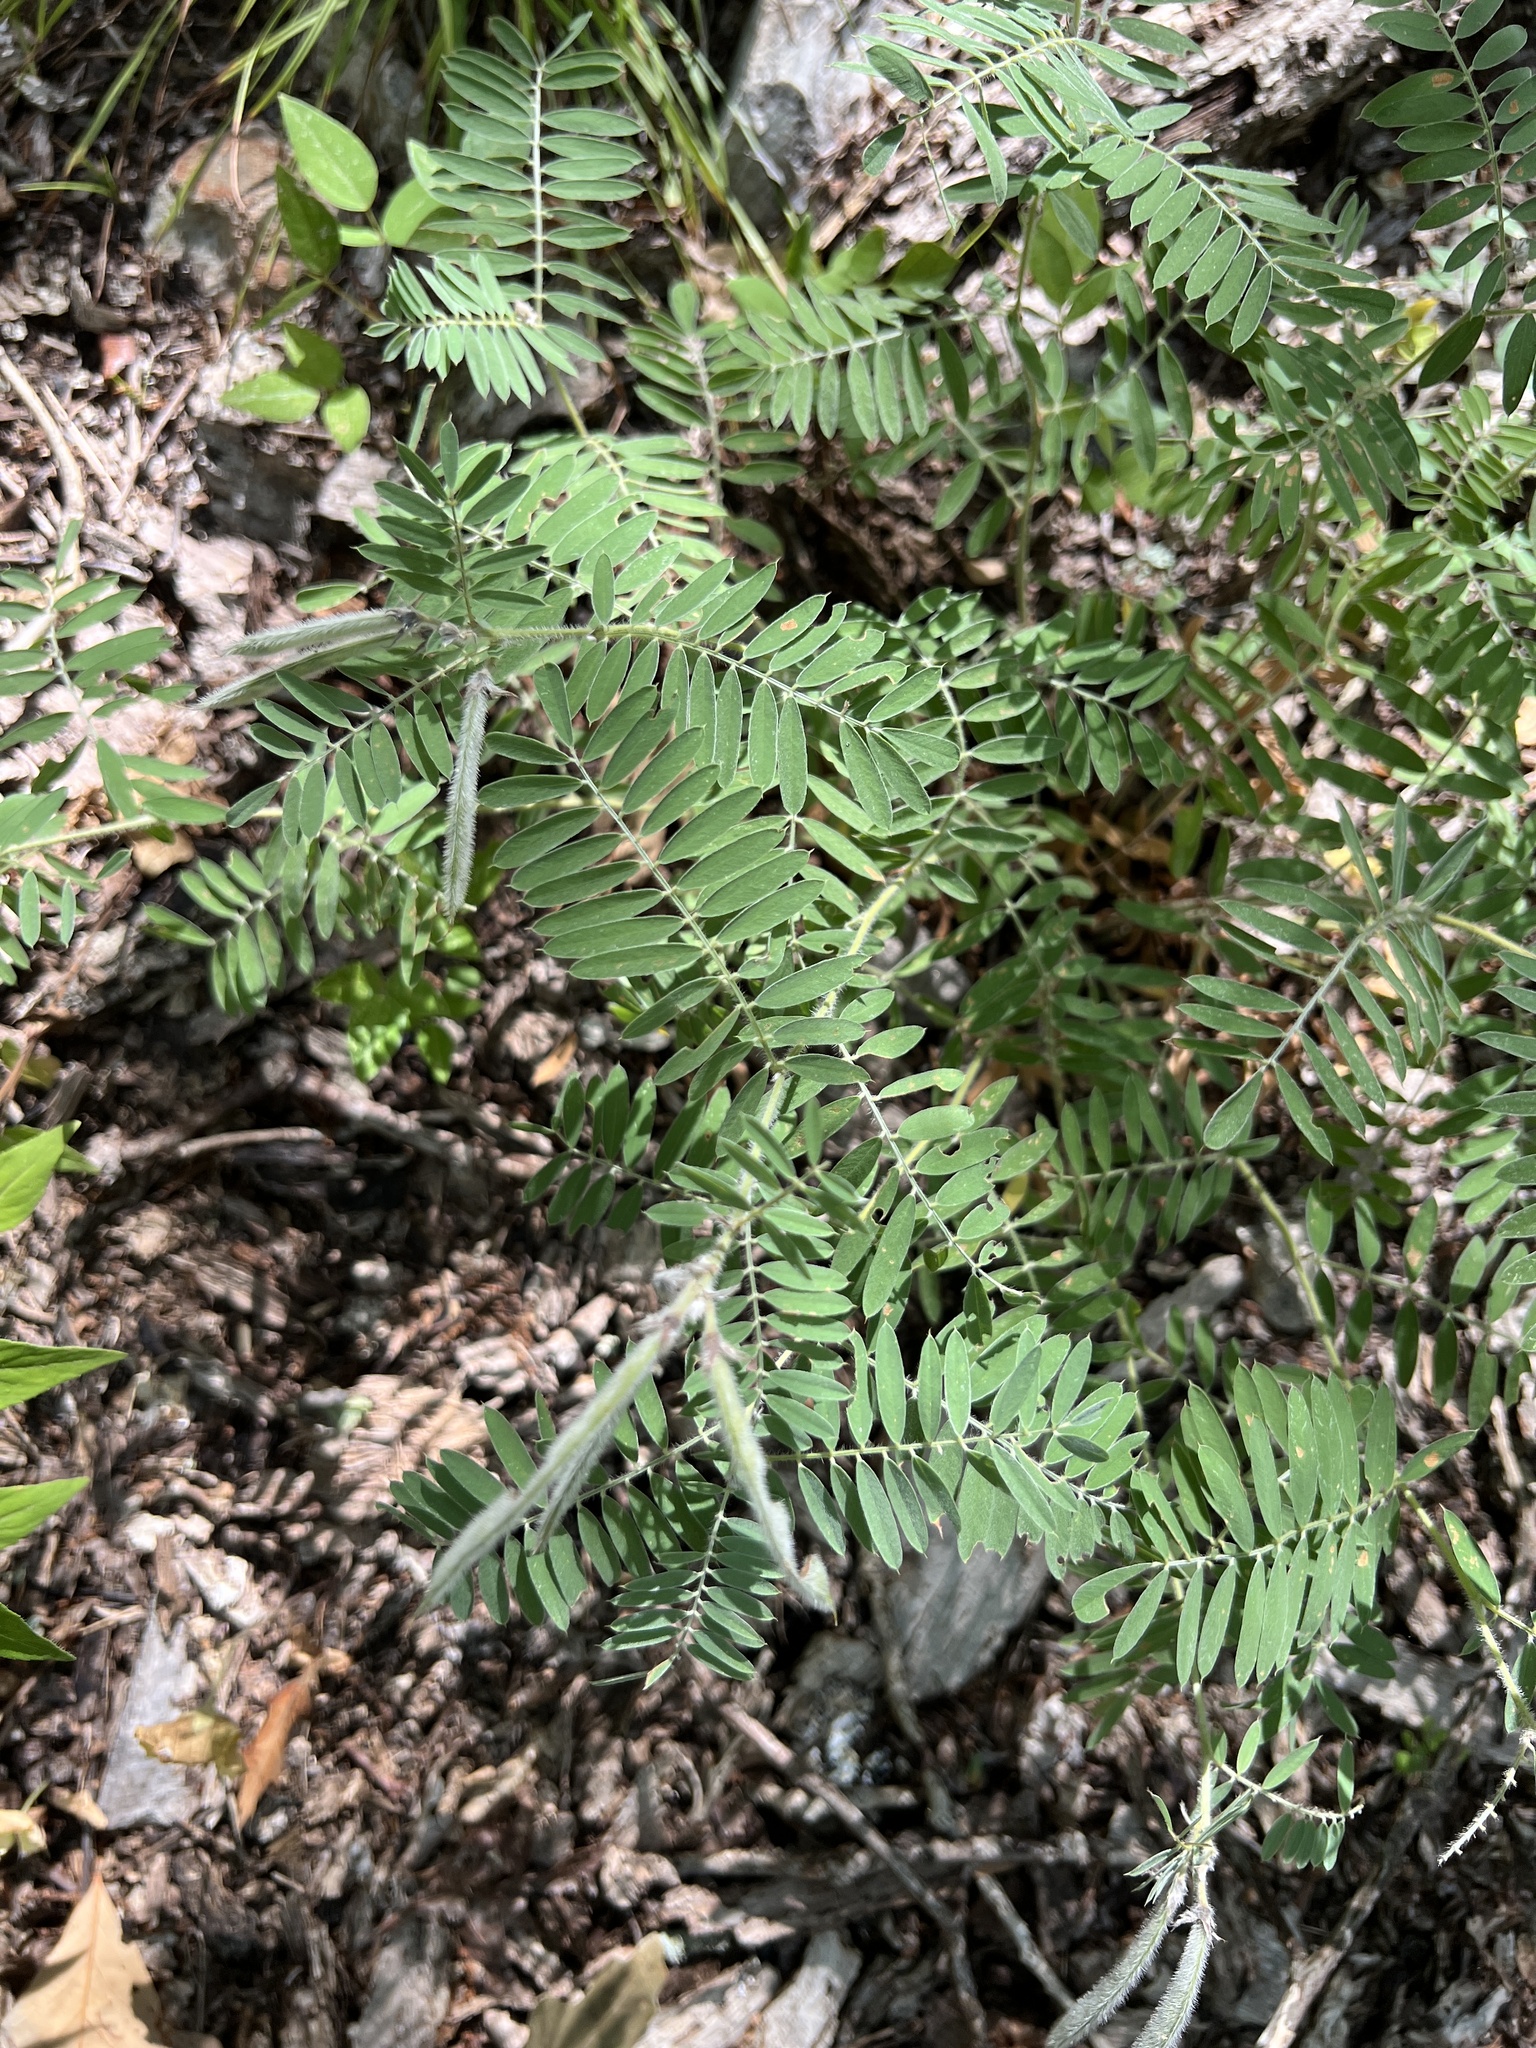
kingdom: Plantae
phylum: Tracheophyta
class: Magnoliopsida
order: Fabales
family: Fabaceae
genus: Tephrosia
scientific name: Tephrosia virginiana
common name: Rabbit-pea
